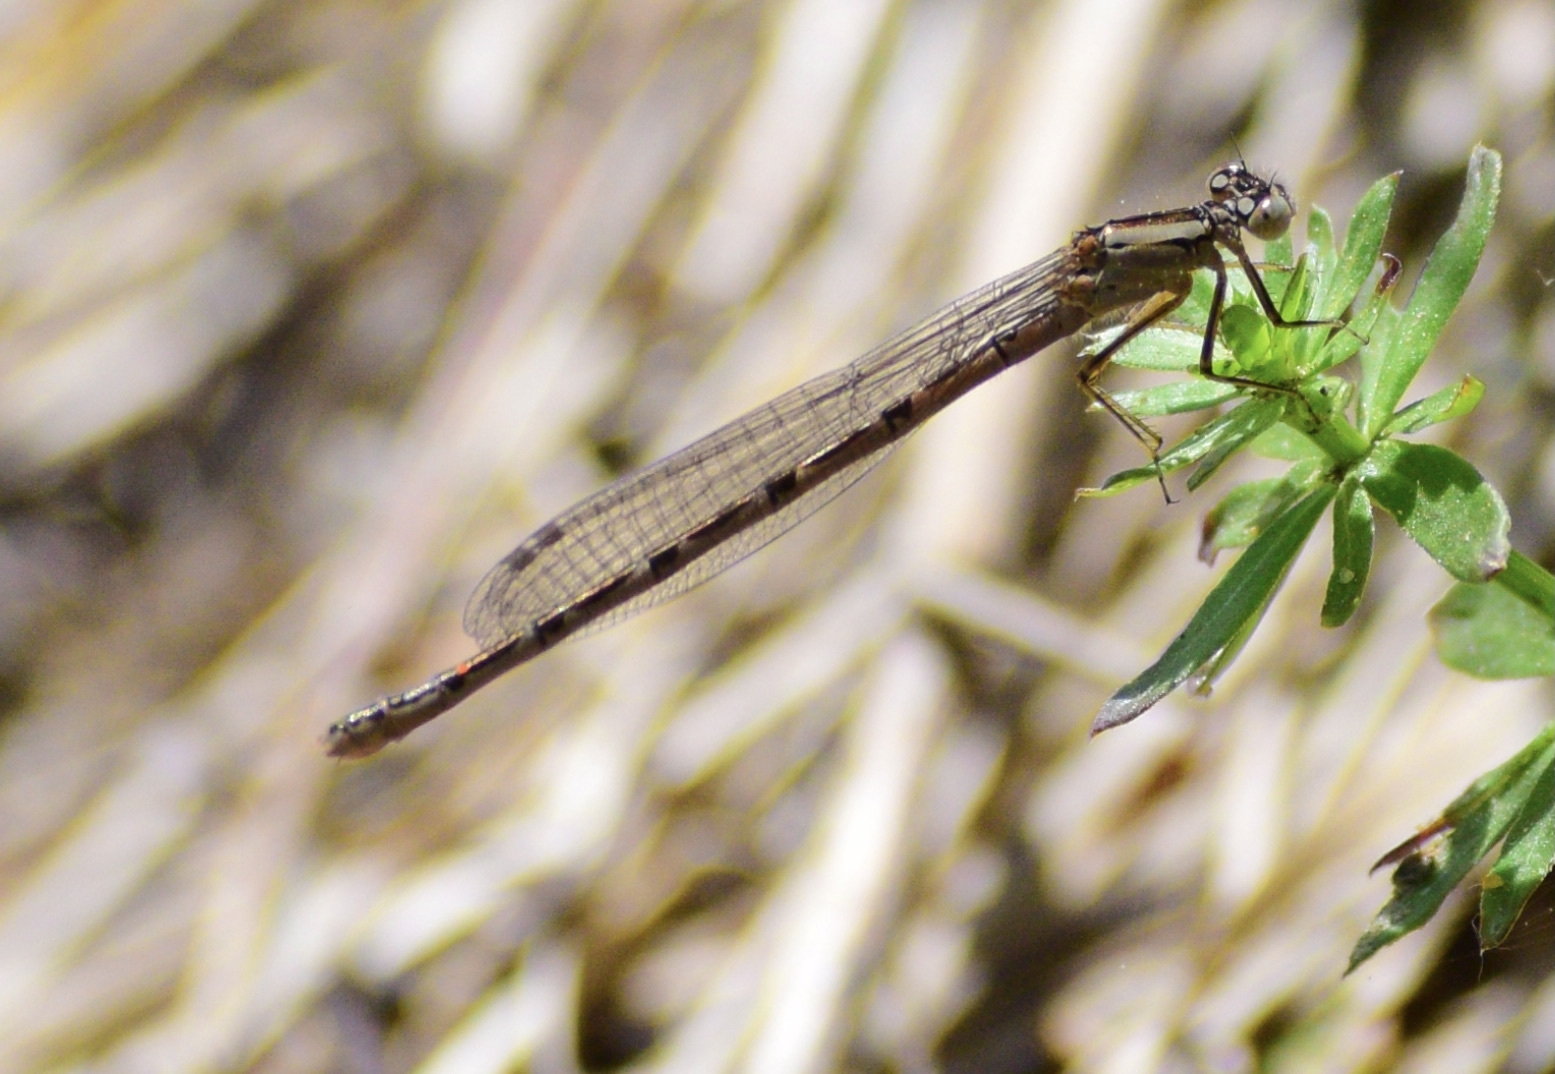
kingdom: Animalia
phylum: Arthropoda
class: Insecta
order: Odonata
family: Coenagrionidae
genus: Enallagma
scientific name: Enallagma
